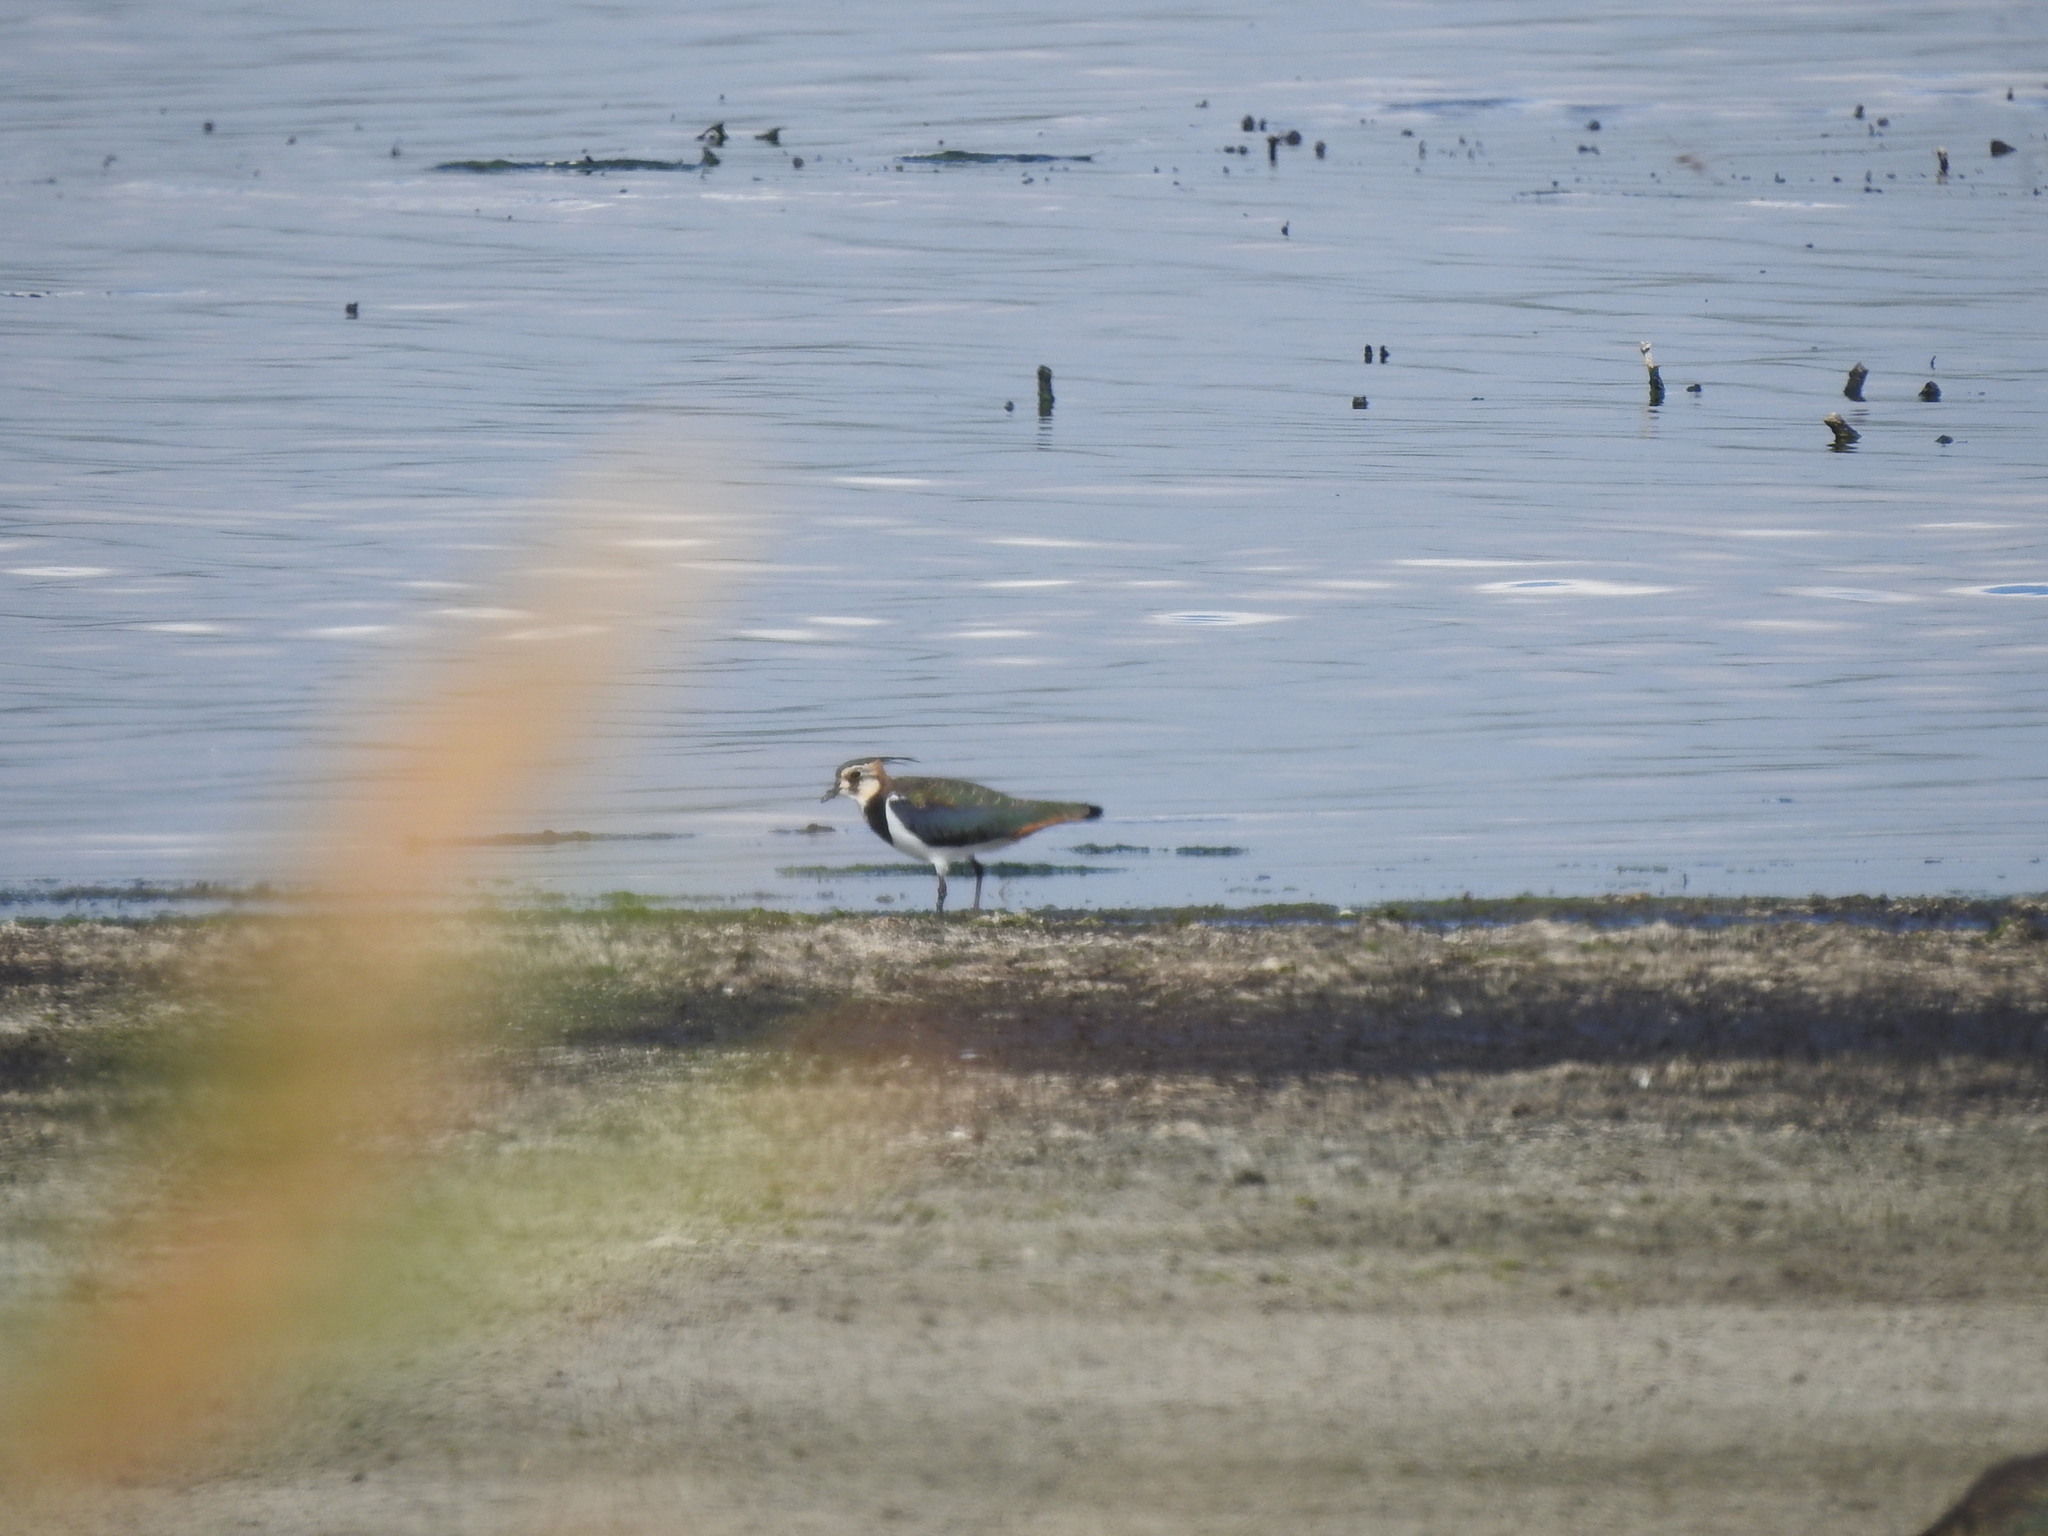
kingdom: Animalia
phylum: Chordata
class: Aves
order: Charadriiformes
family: Charadriidae
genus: Vanellus
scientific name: Vanellus vanellus
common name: Northern lapwing
